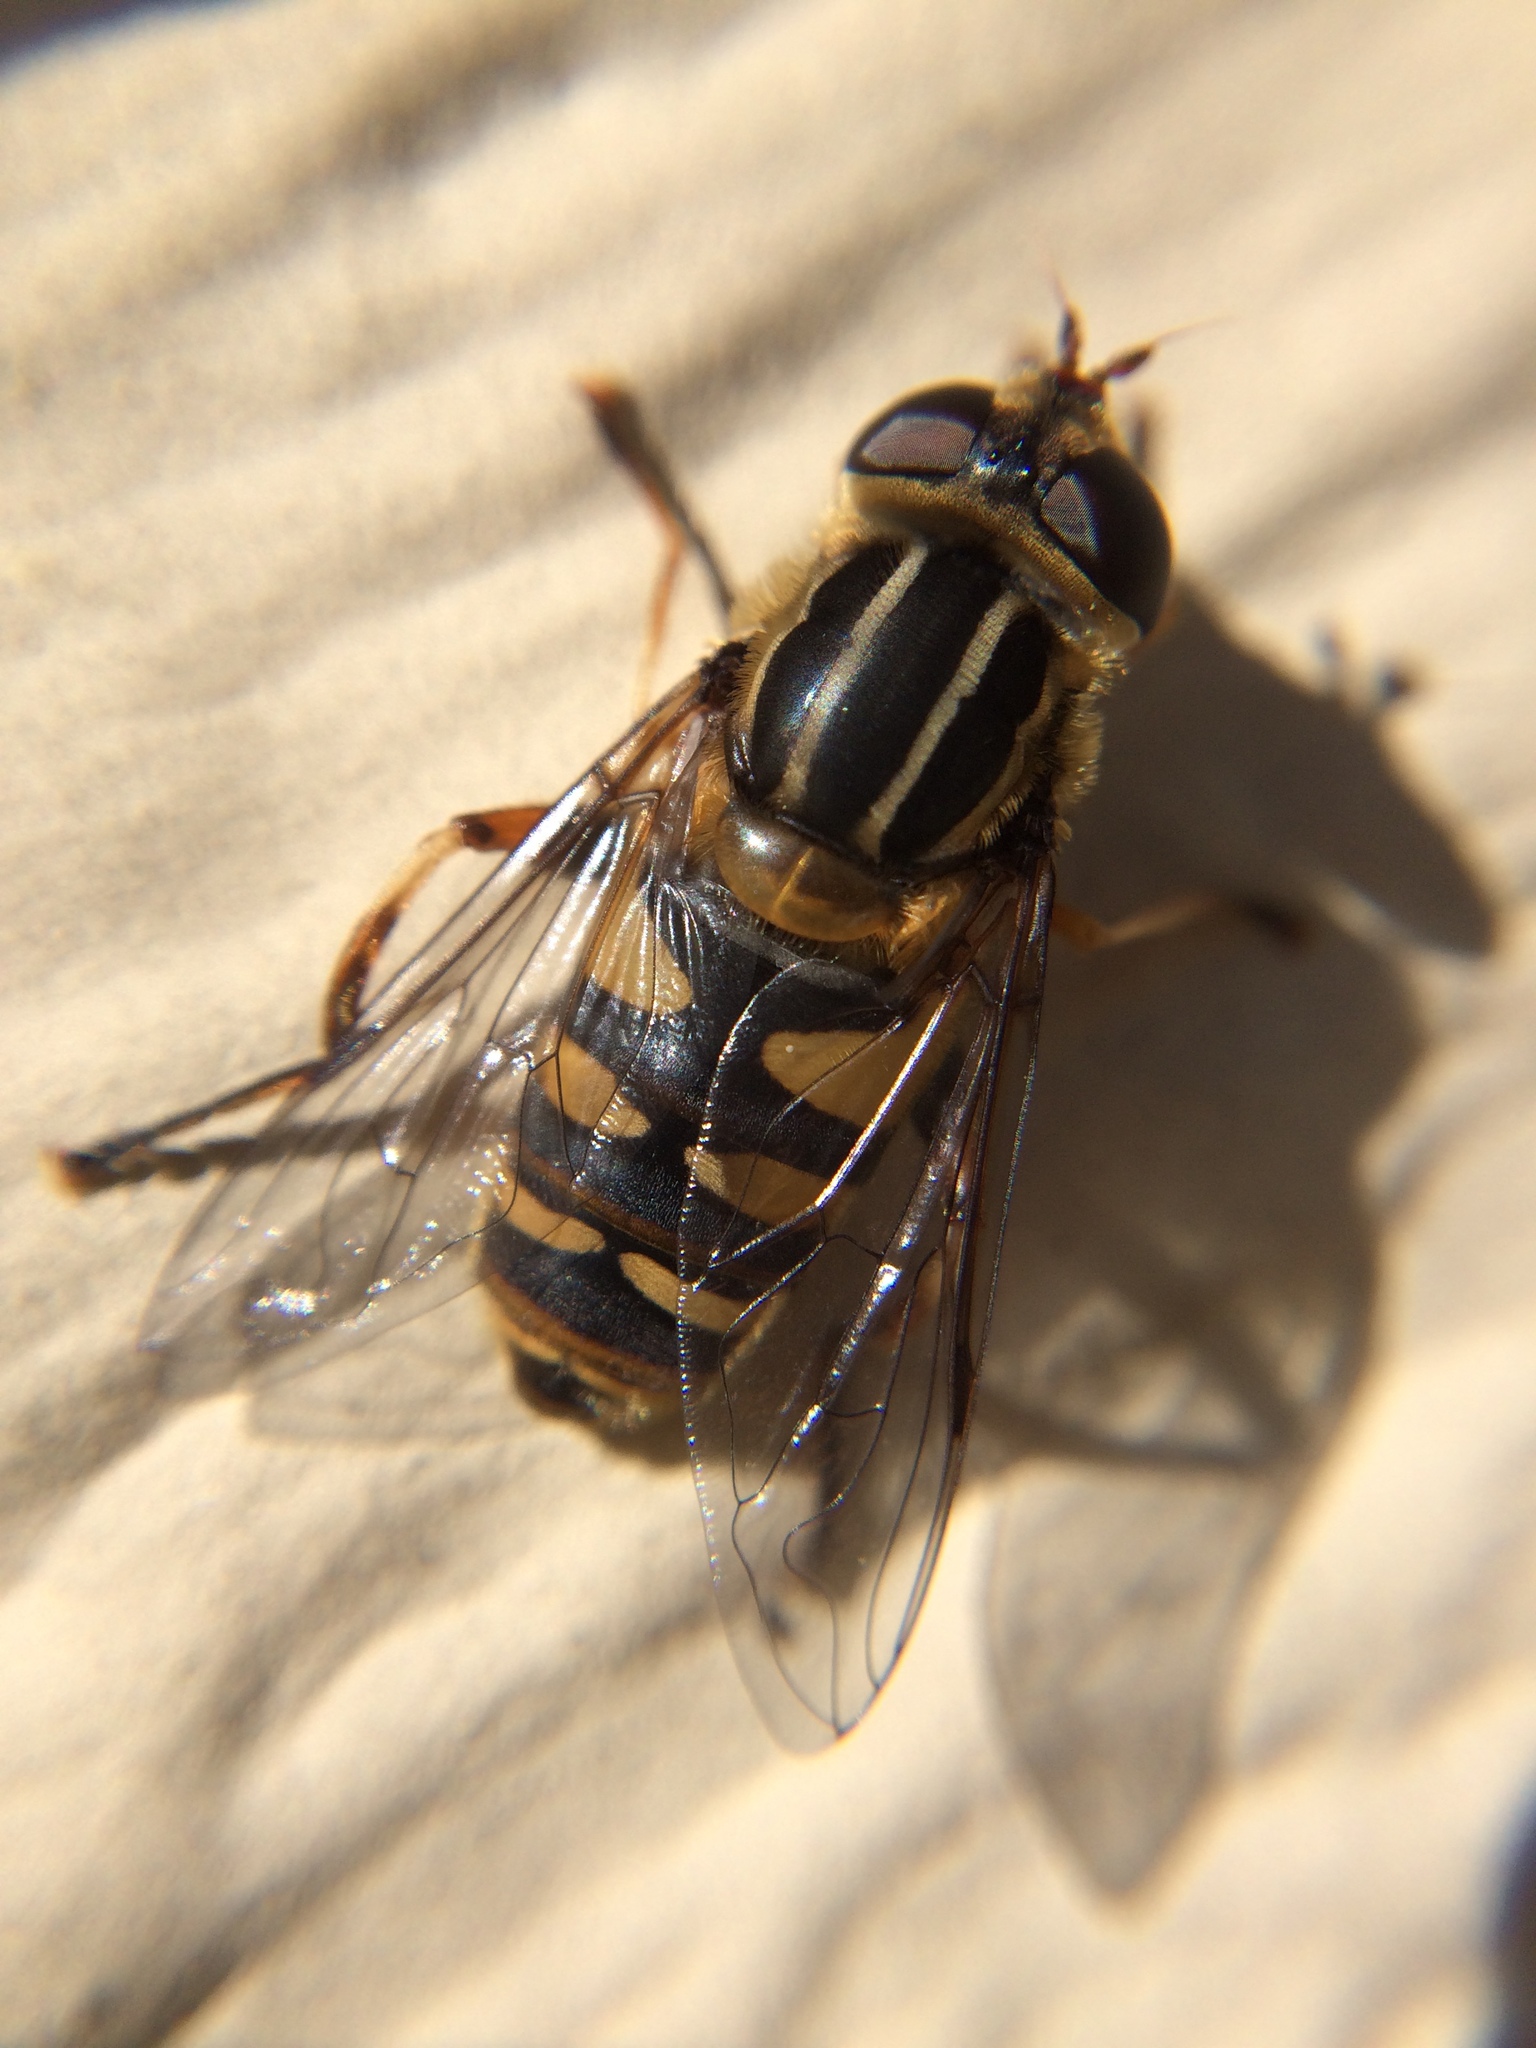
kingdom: Animalia
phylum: Arthropoda
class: Insecta
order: Diptera
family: Syrphidae
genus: Helophilus
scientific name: Helophilus fasciatus
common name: Narrow-headed marsh fly
